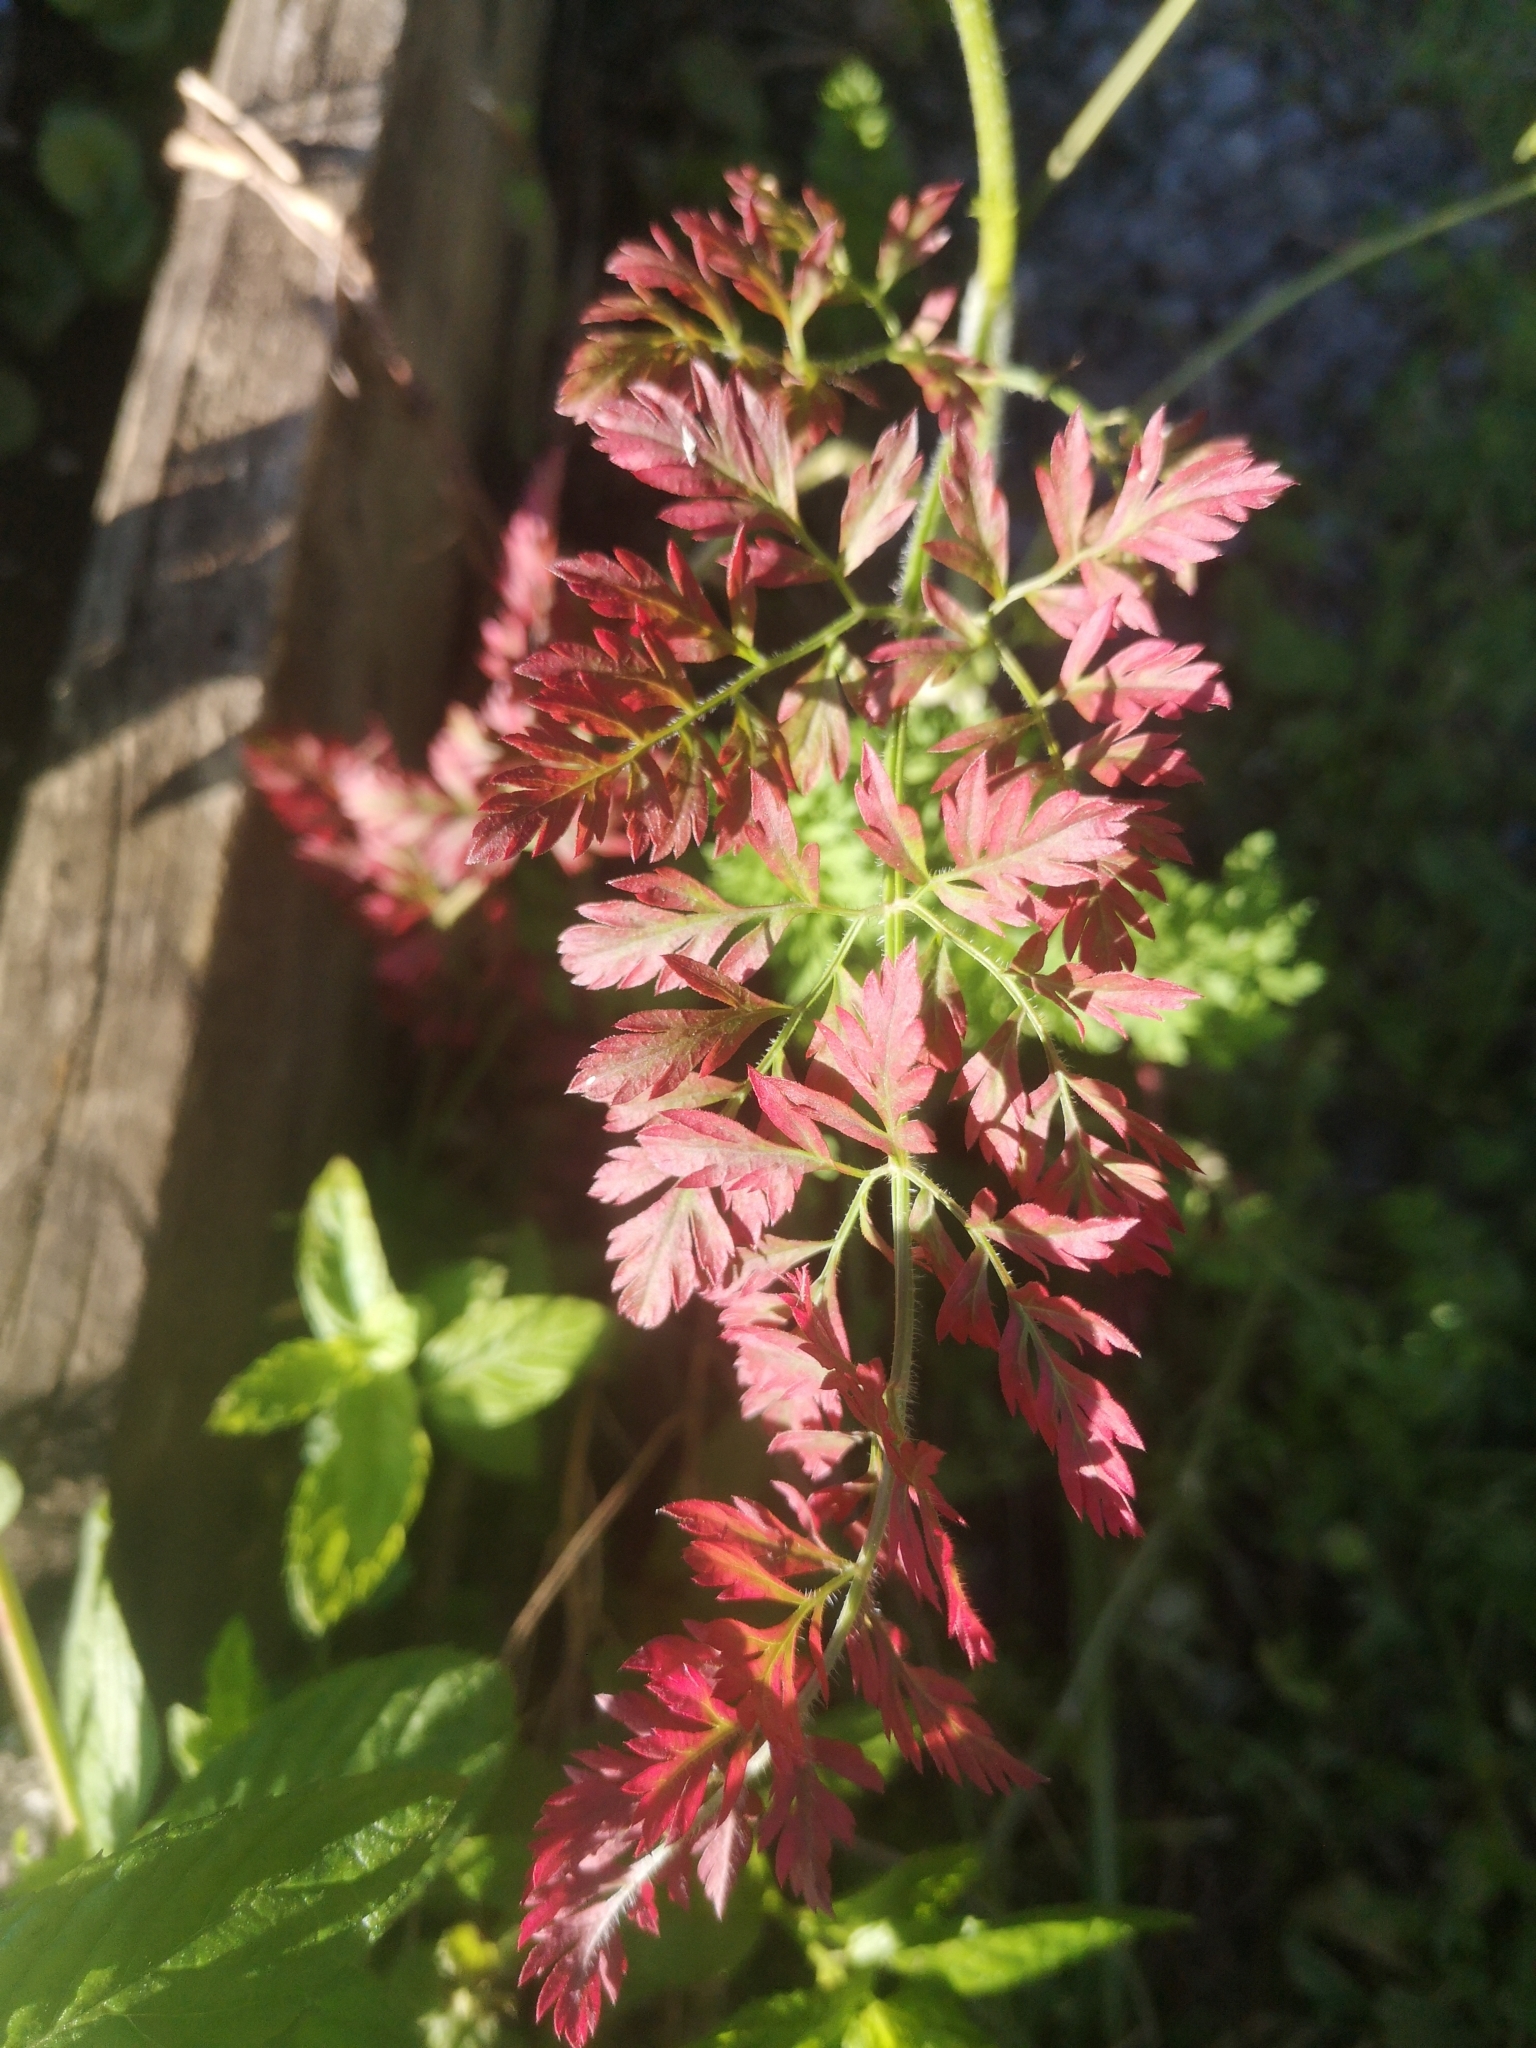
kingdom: Plantae
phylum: Tracheophyta
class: Magnoliopsida
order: Apiales
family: Apiaceae
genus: Daucus
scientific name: Daucus carota
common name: Wild carrot
